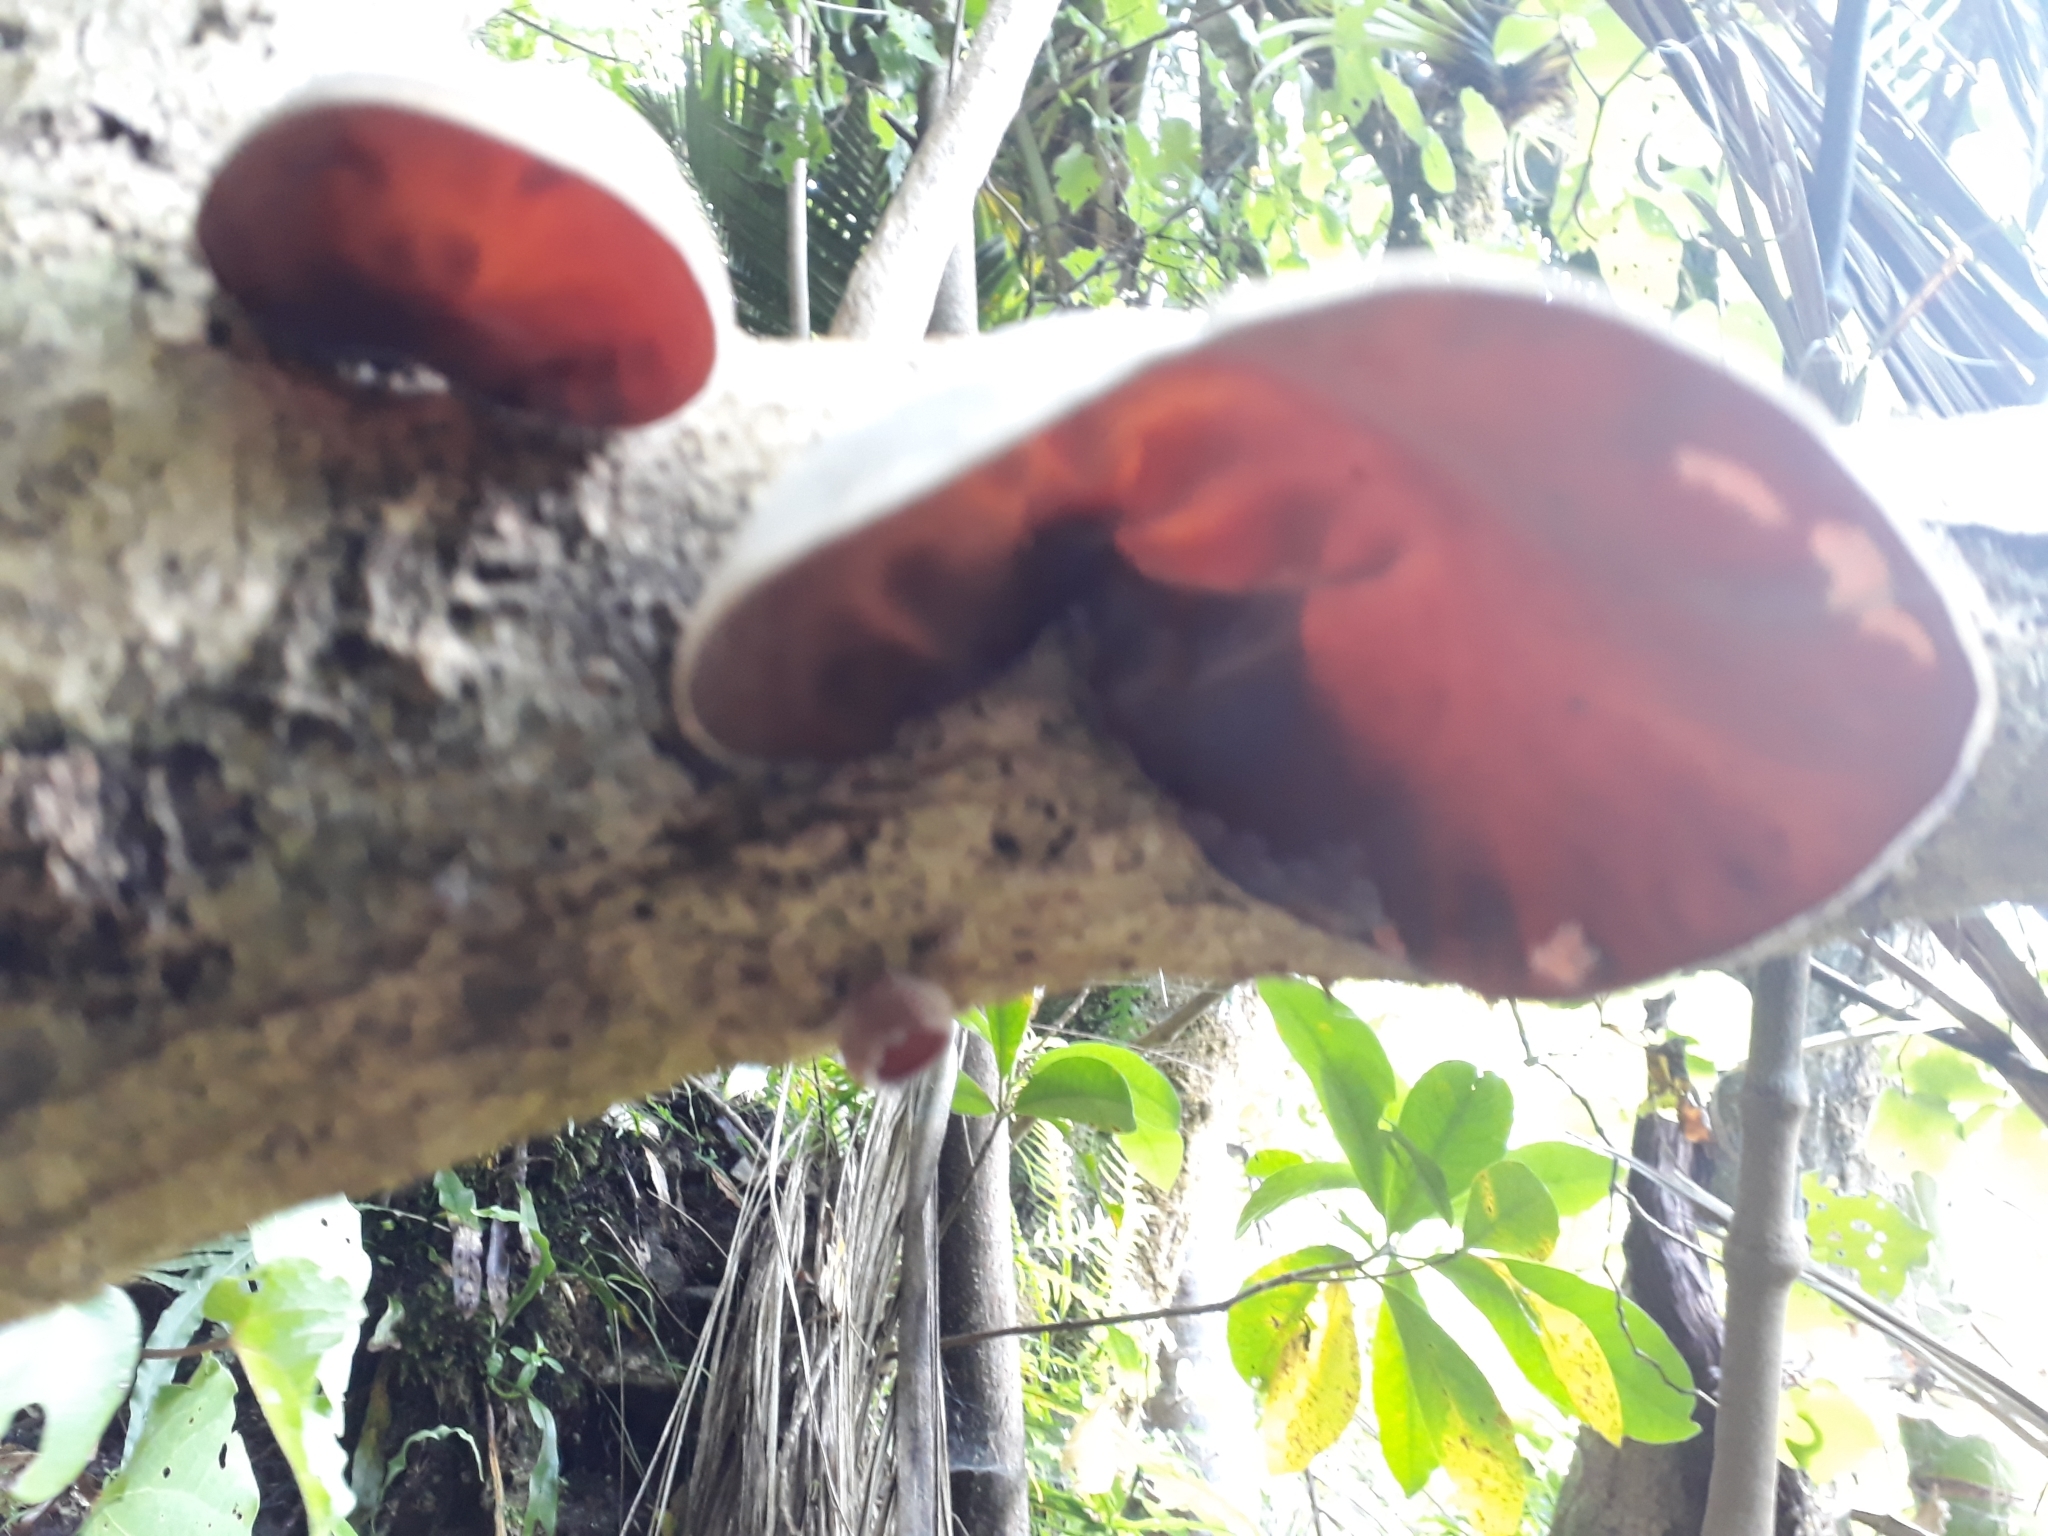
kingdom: Fungi
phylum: Basidiomycota
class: Agaricomycetes
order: Auriculariales
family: Auriculariaceae
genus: Auricularia
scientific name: Auricularia cornea
